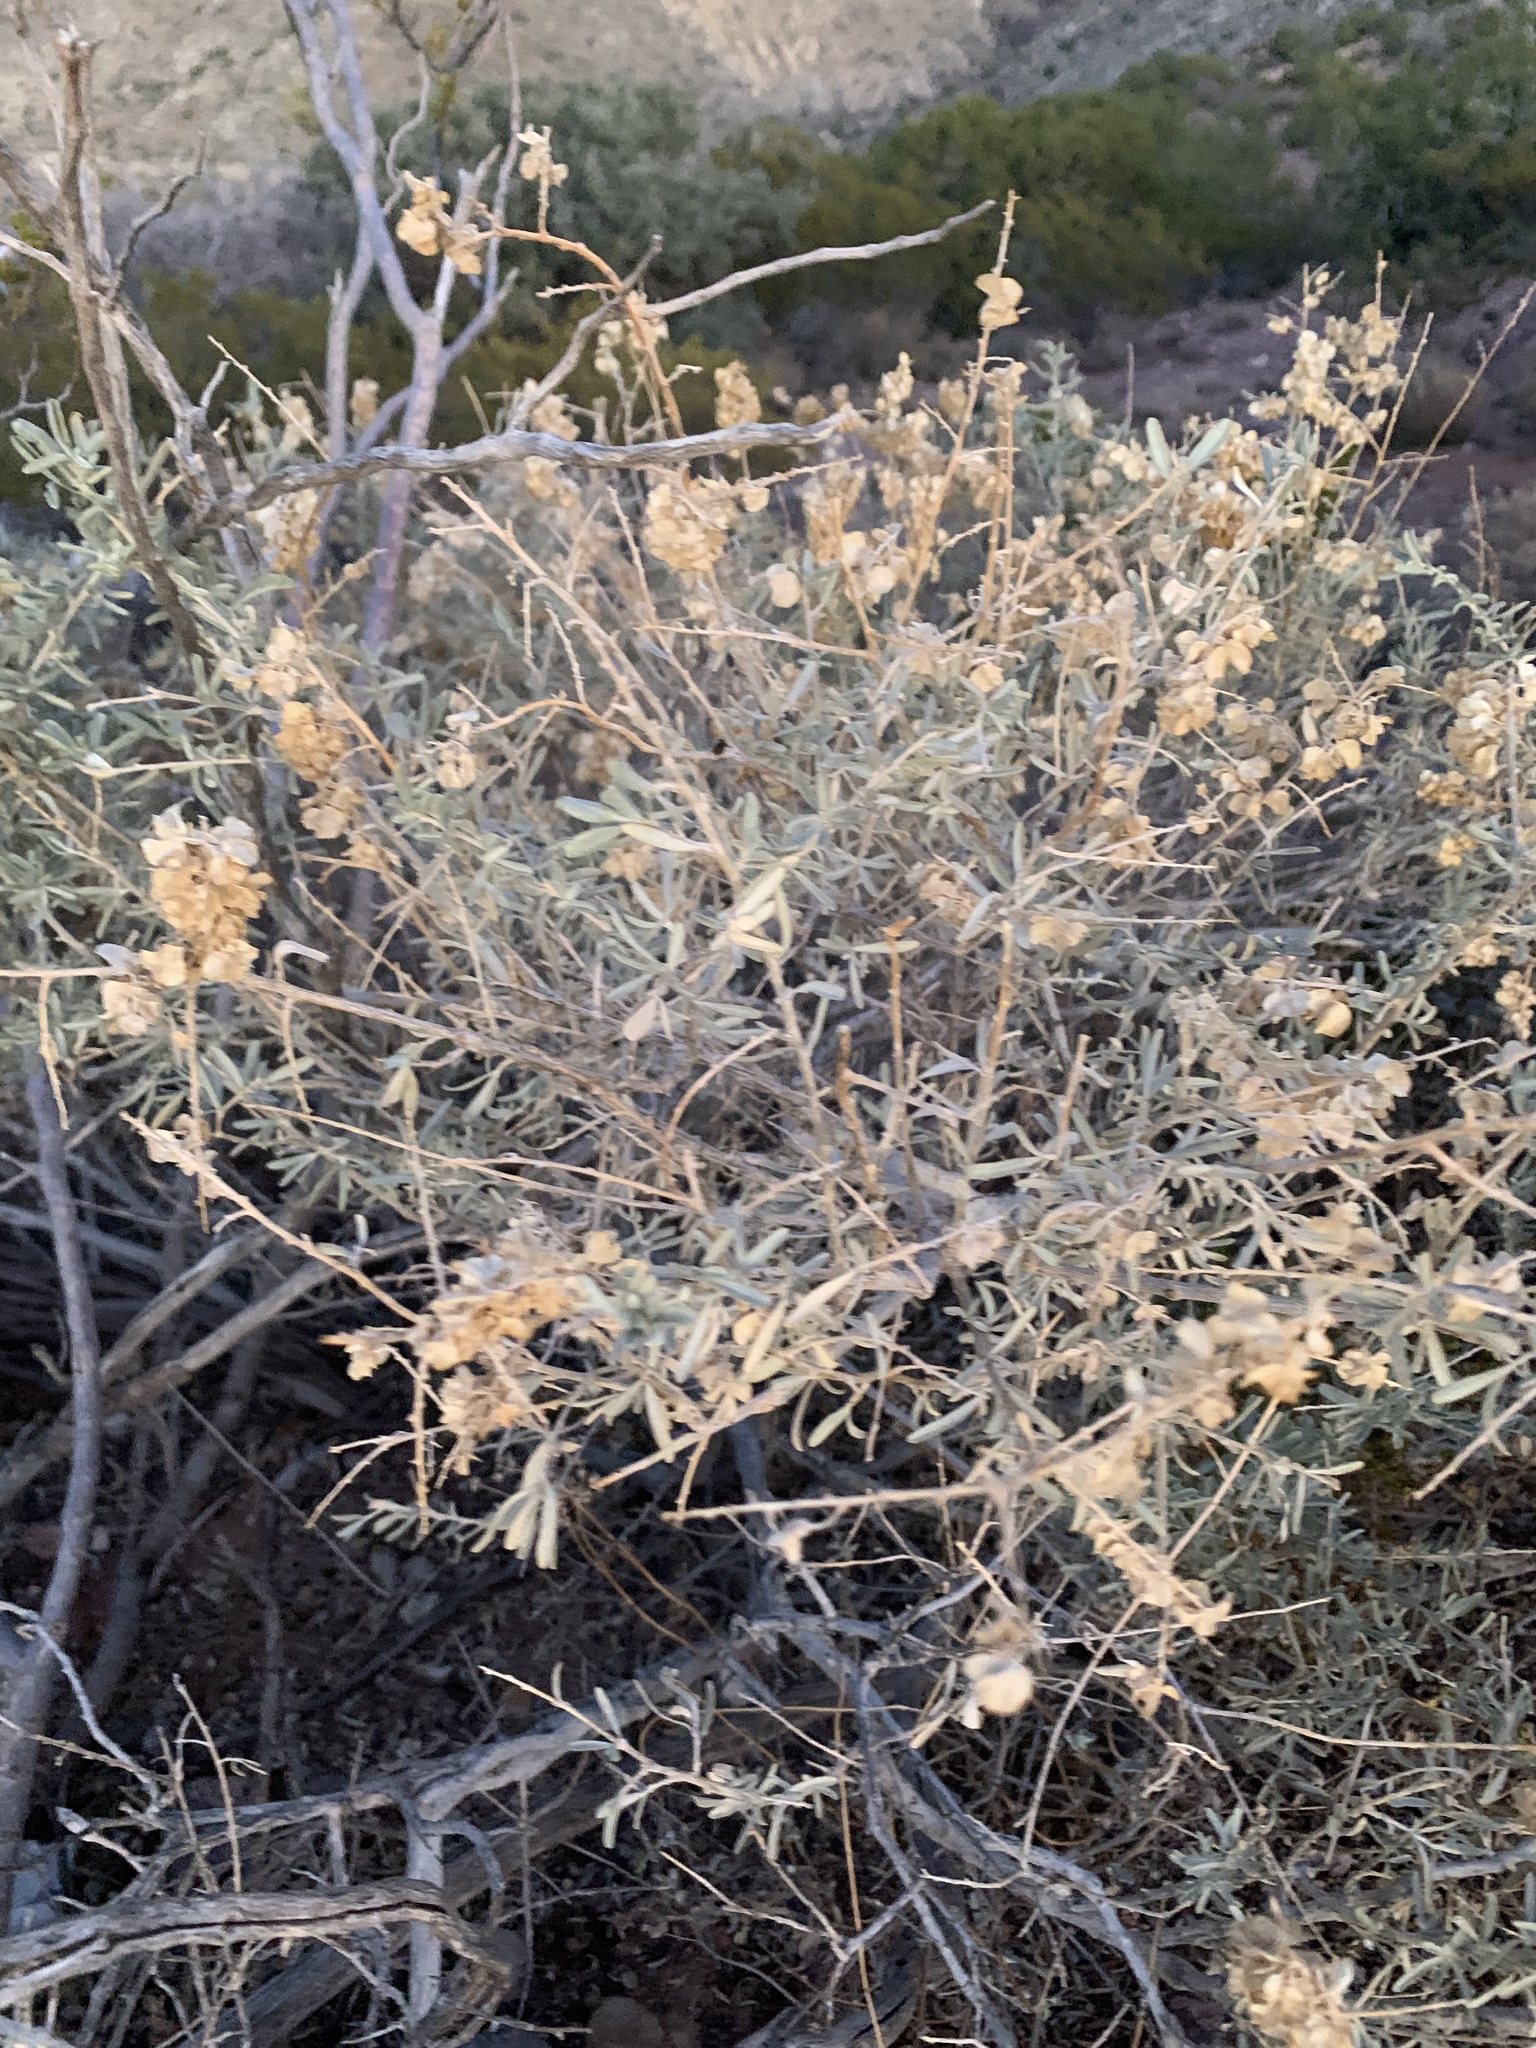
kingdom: Plantae
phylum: Tracheophyta
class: Magnoliopsida
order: Caryophyllales
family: Amaranthaceae
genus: Atriplex
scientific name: Atriplex canescens
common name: Four-wing saltbush
